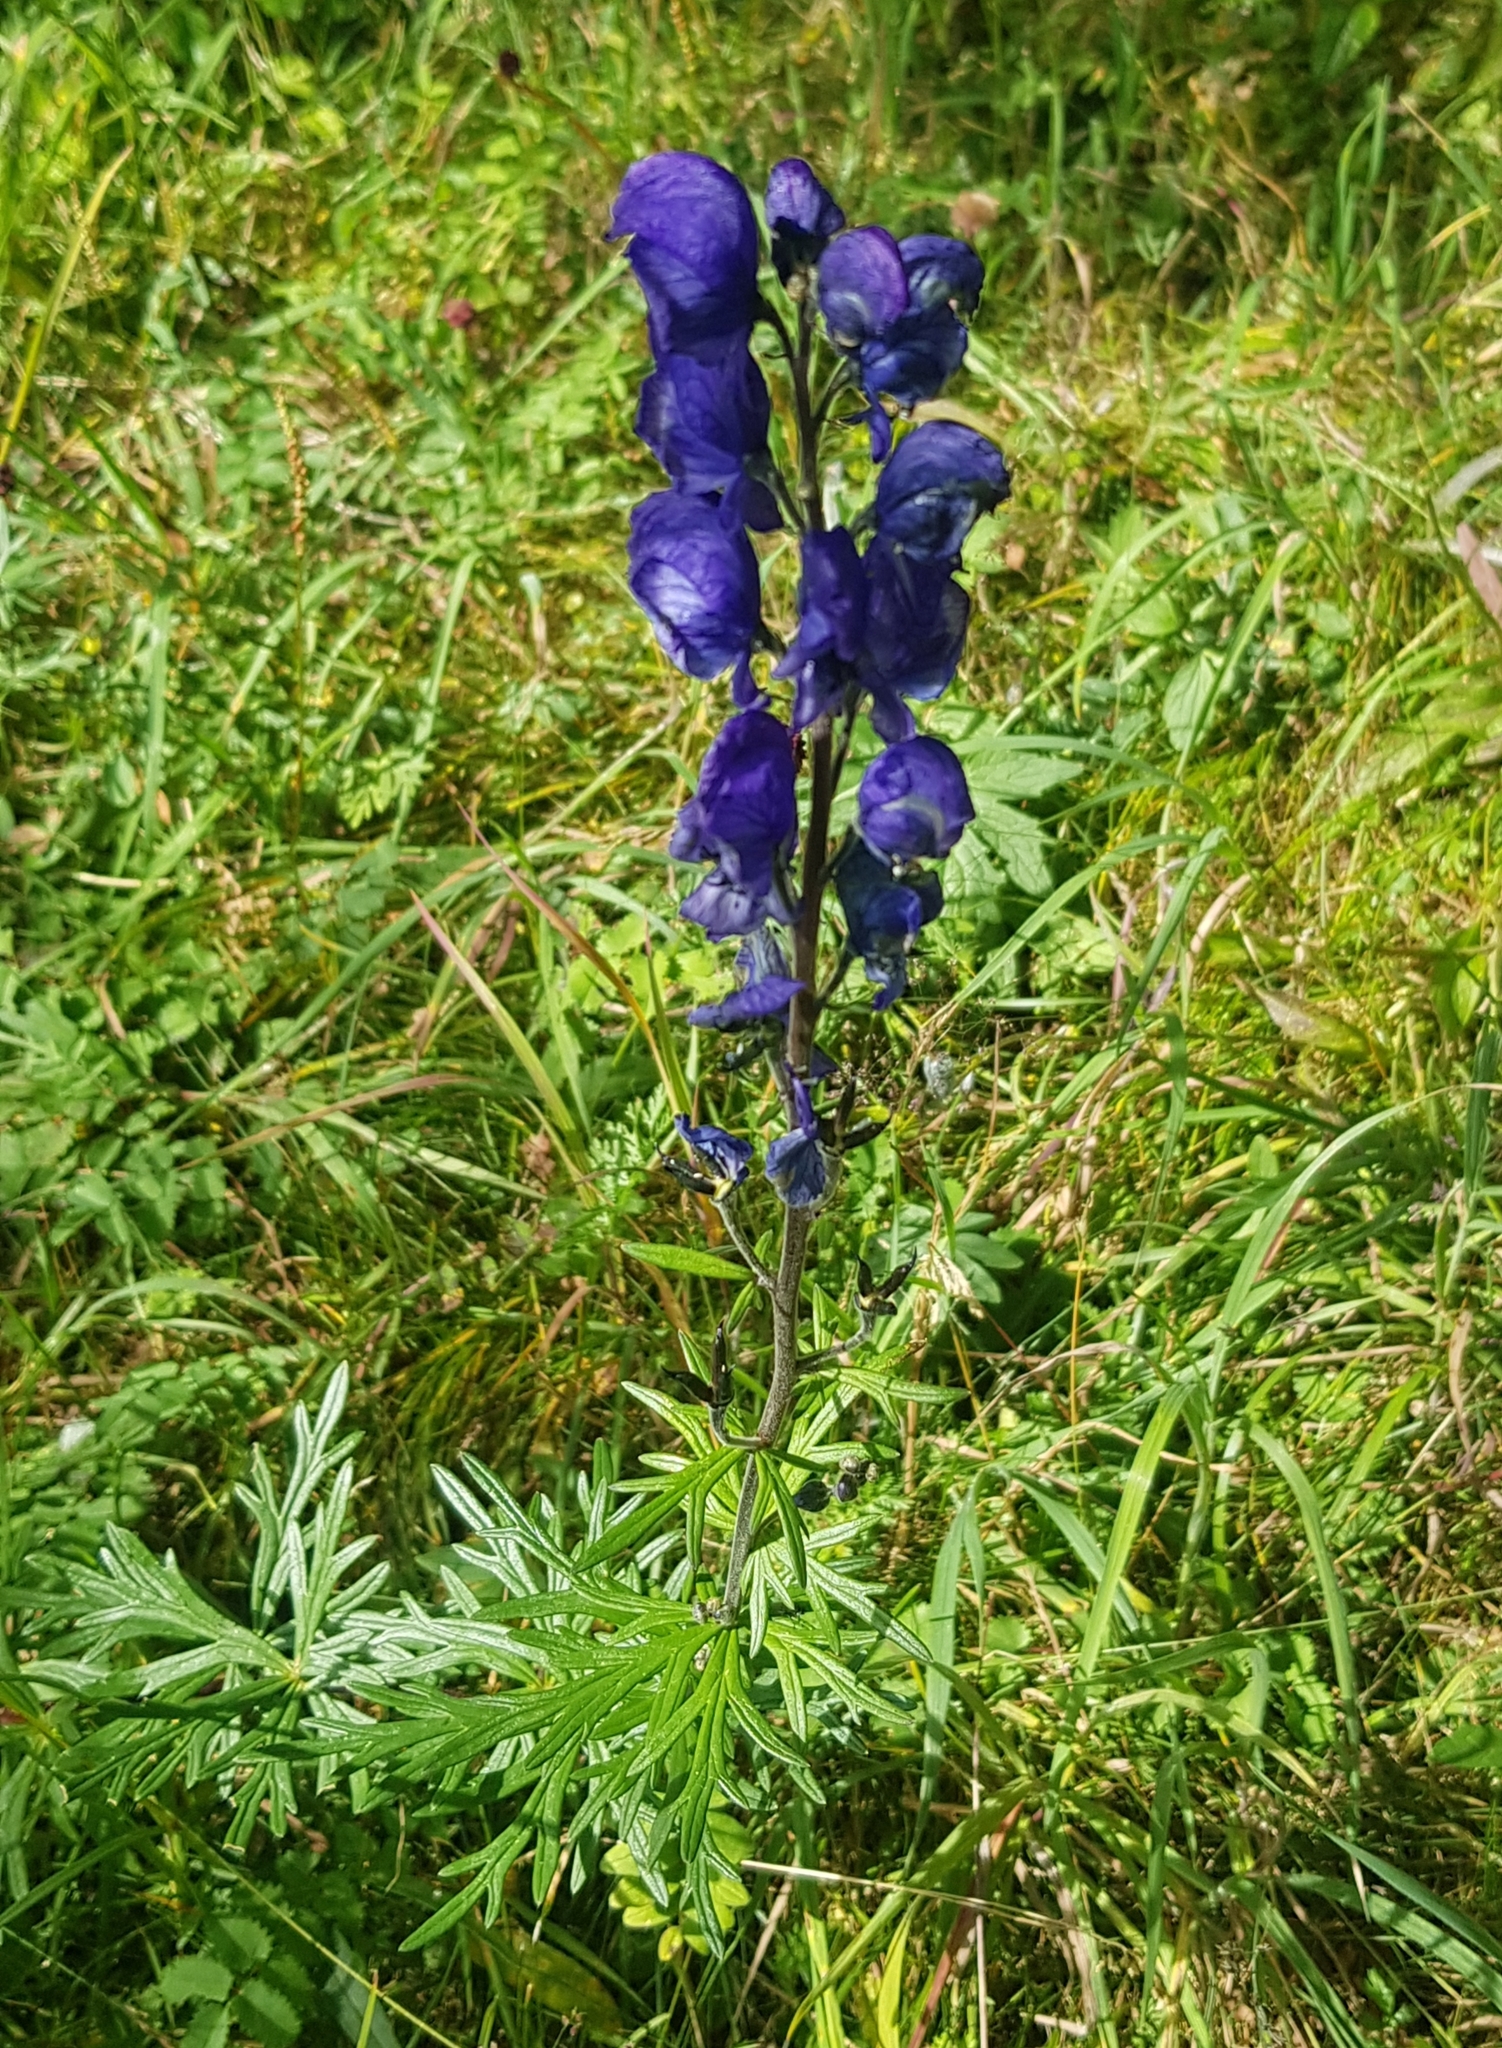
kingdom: Plantae
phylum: Tracheophyta
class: Magnoliopsida
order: Ranunculales
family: Ranunculaceae
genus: Aconitum
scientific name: Aconitum baicalense
